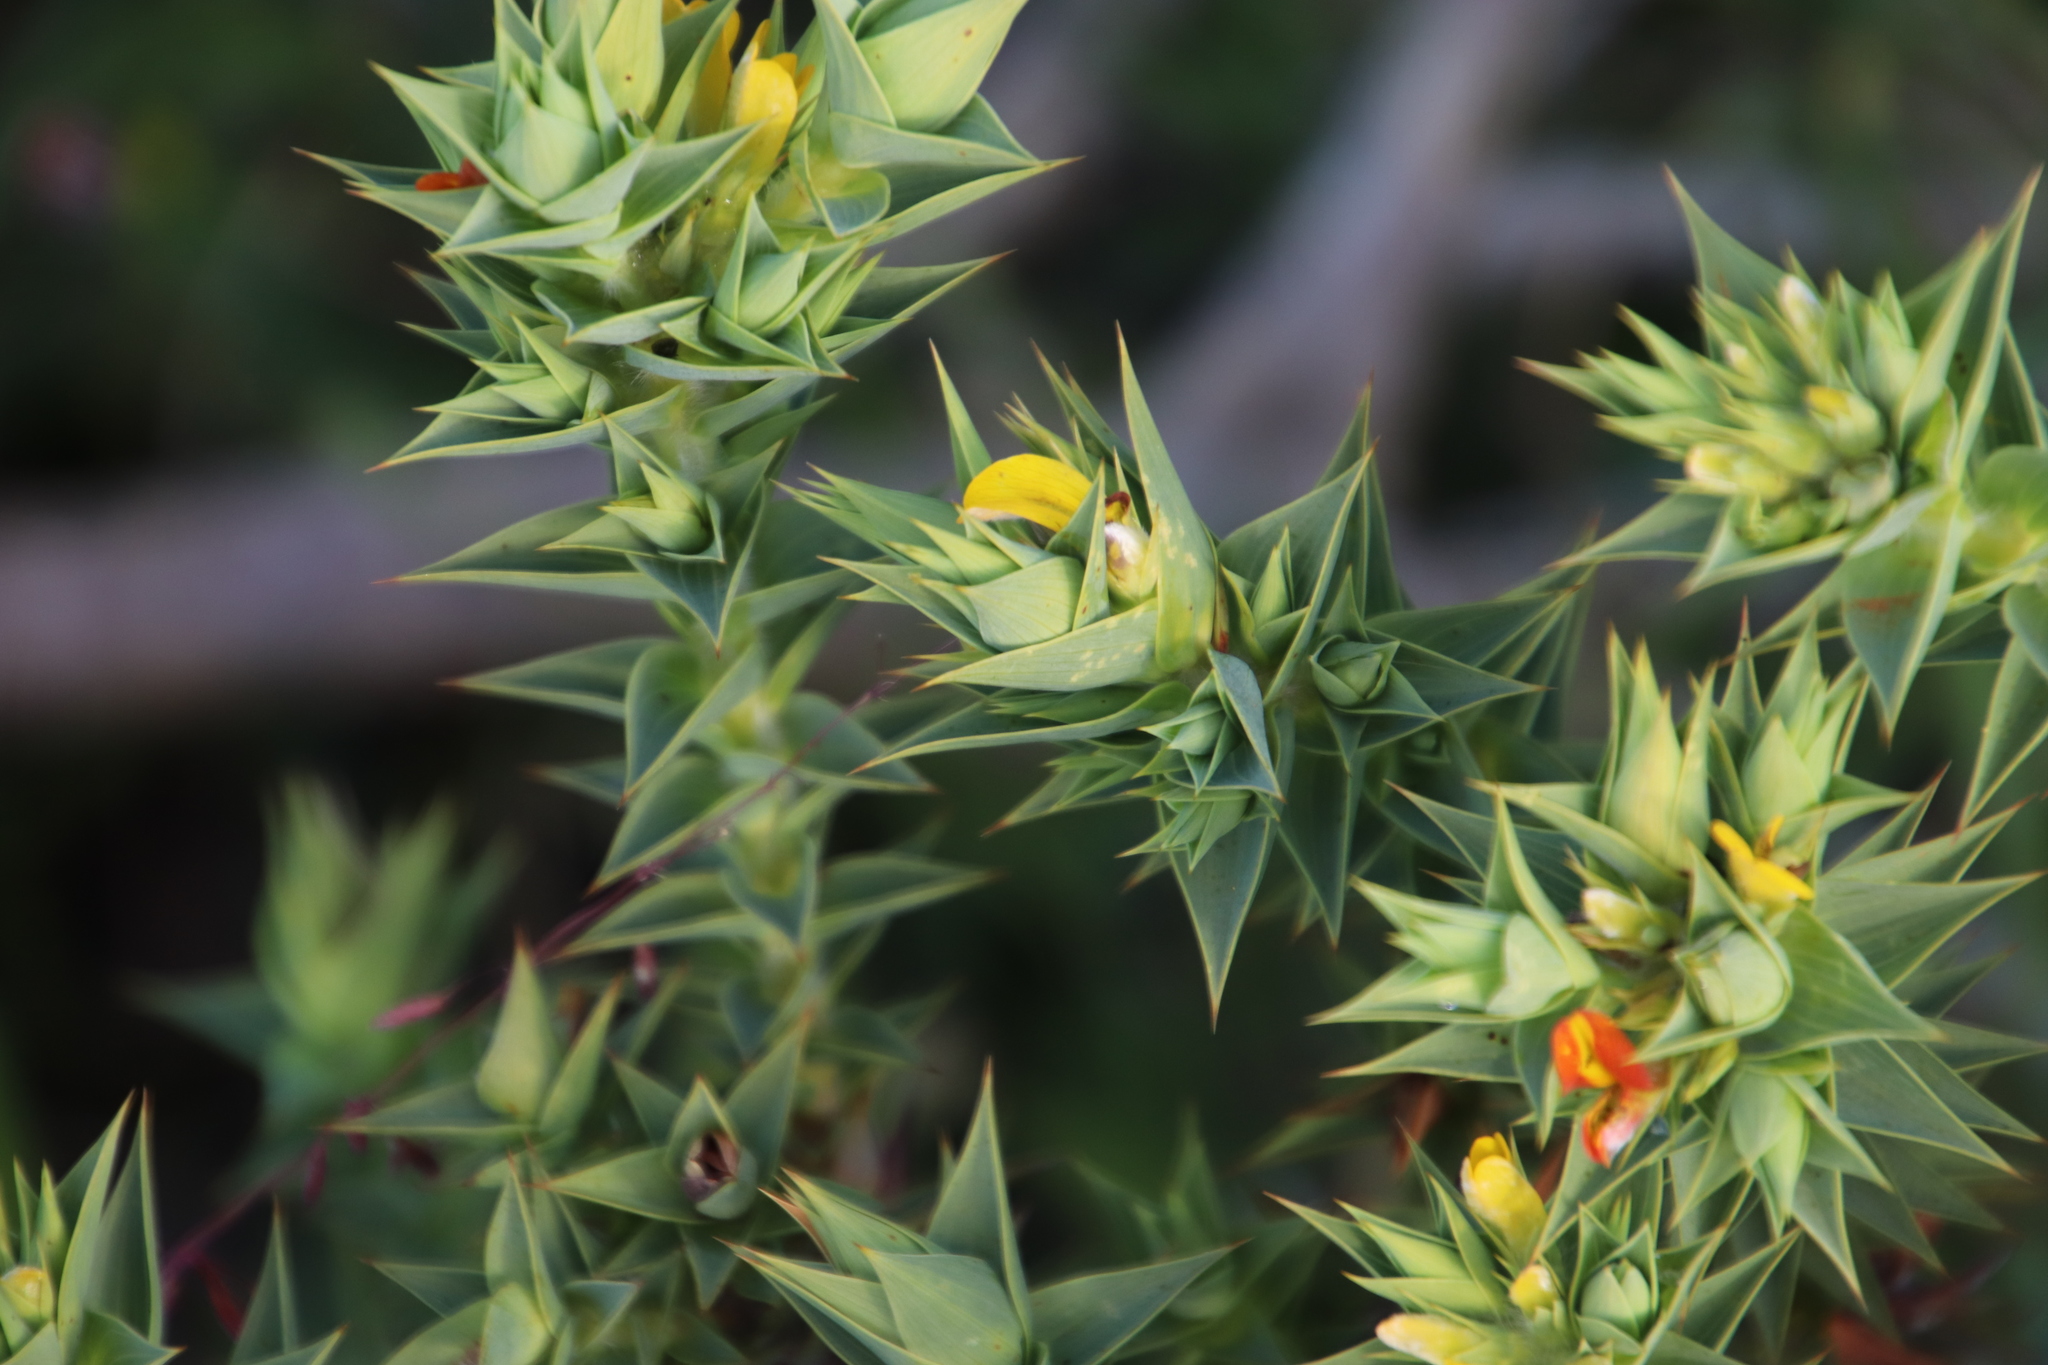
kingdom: Plantae
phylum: Tracheophyta
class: Magnoliopsida
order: Fabales
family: Fabaceae
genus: Aspalathus
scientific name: Aspalathus cordata
